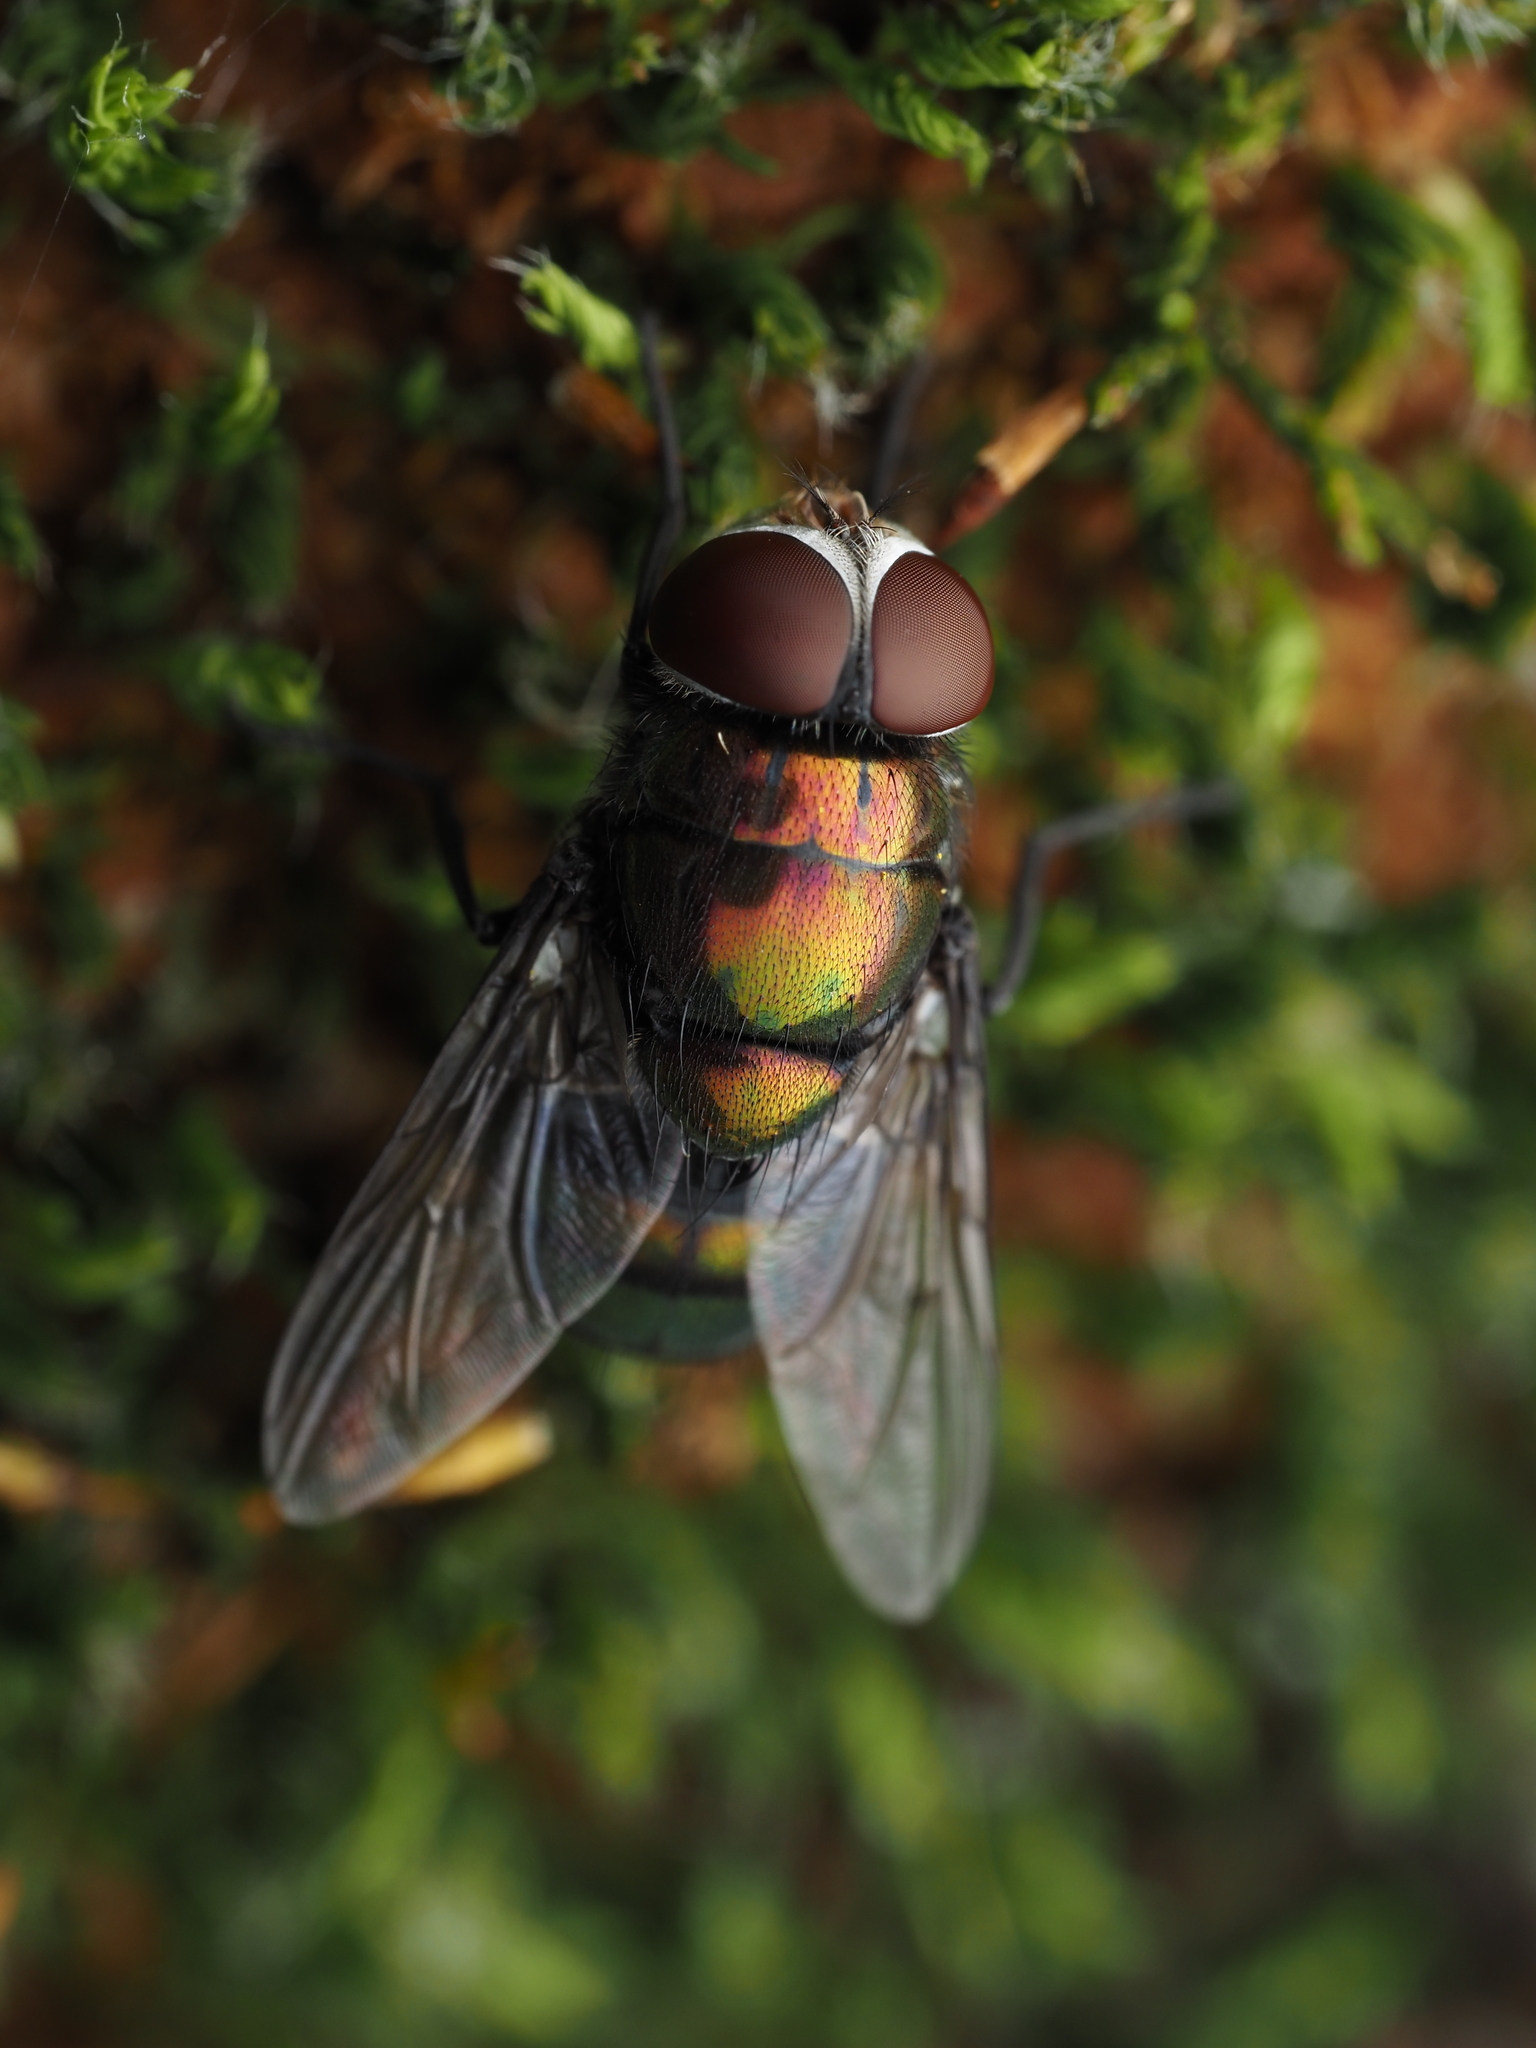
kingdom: Animalia
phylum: Arthropoda
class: Insecta
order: Diptera
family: Calliphoridae
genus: Chrysomya
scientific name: Chrysomya megacephala
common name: Blow fly
